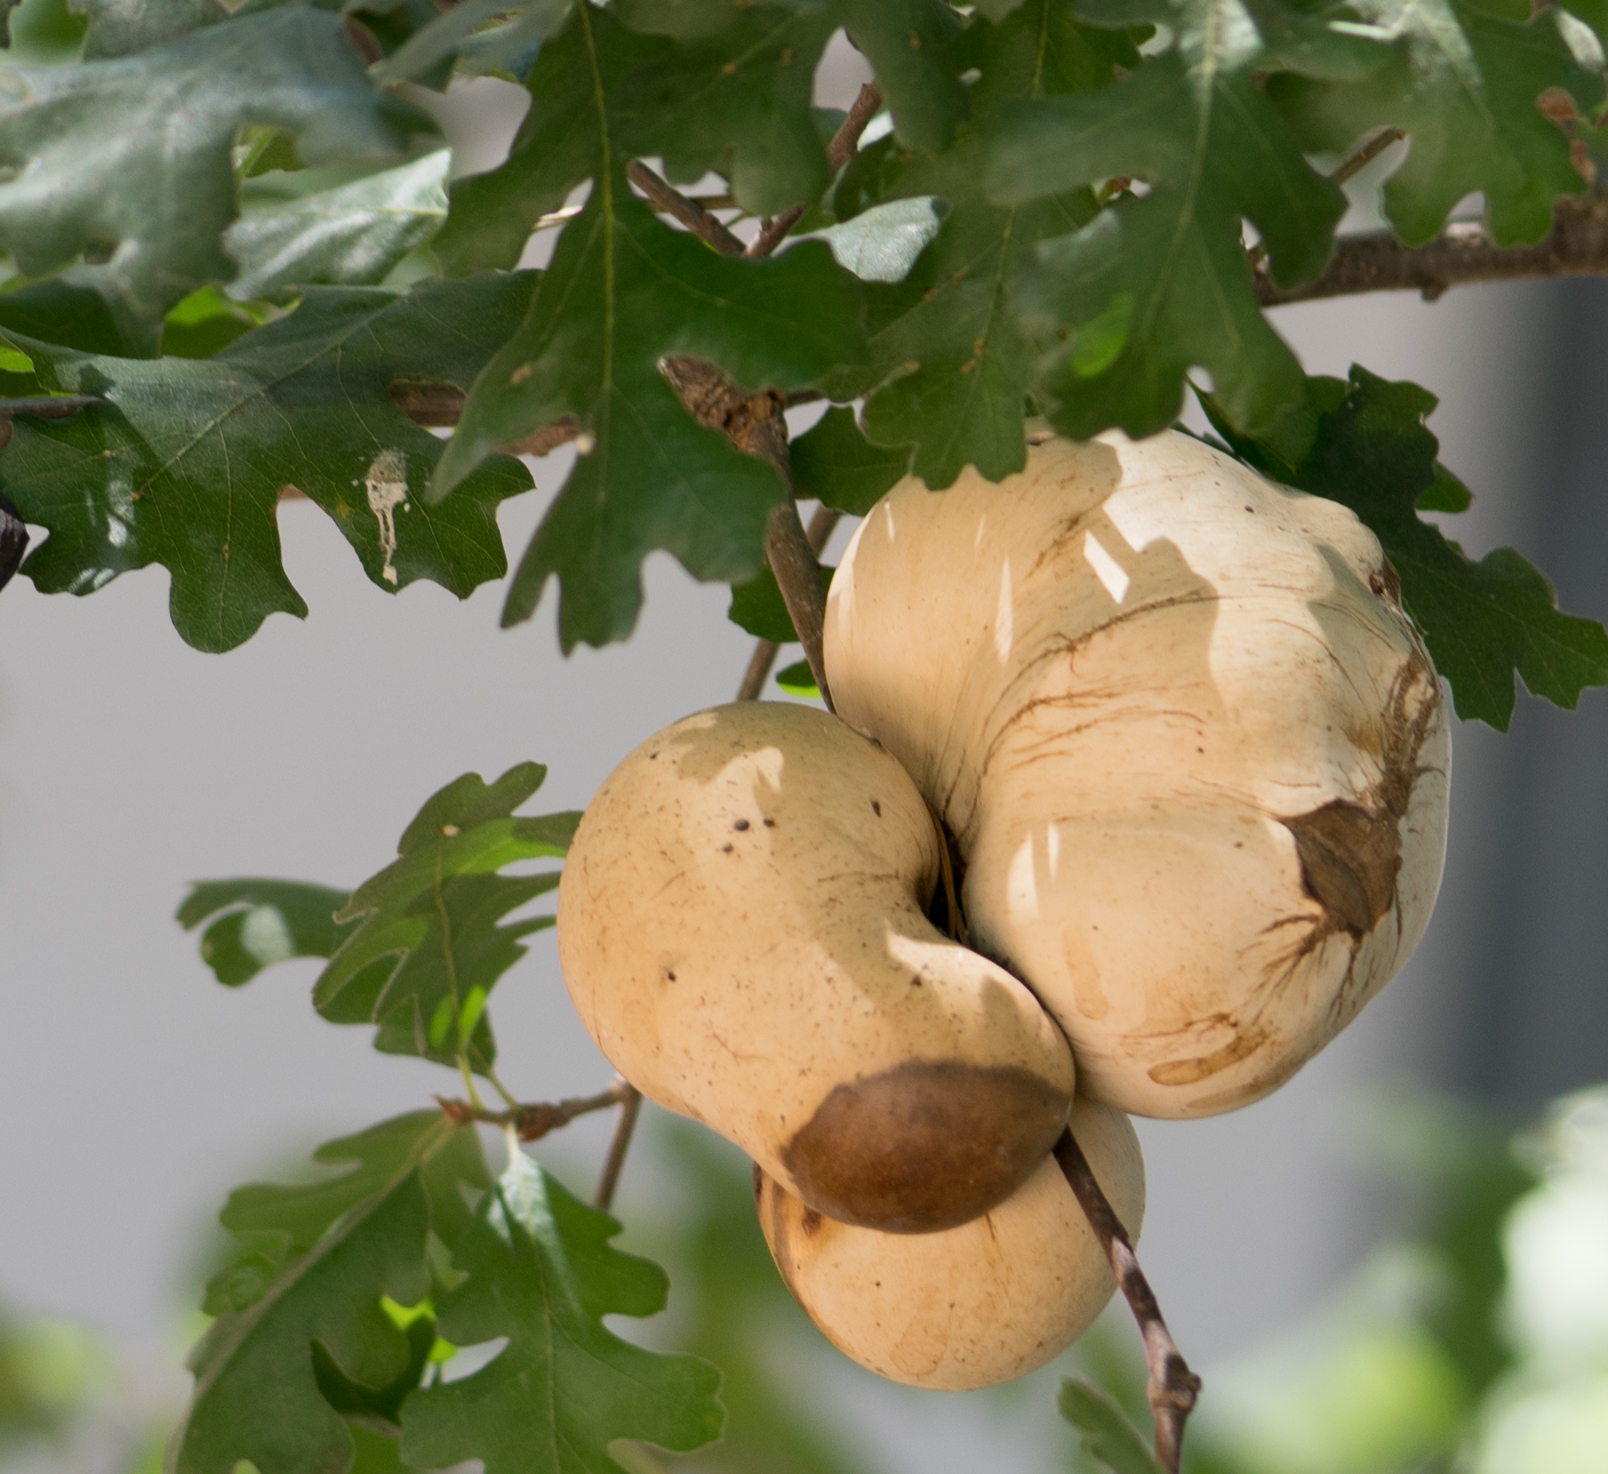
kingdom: Animalia
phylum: Arthropoda
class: Insecta
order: Hymenoptera
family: Cynipidae
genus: Andricus
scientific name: Andricus quercuscalifornicus
